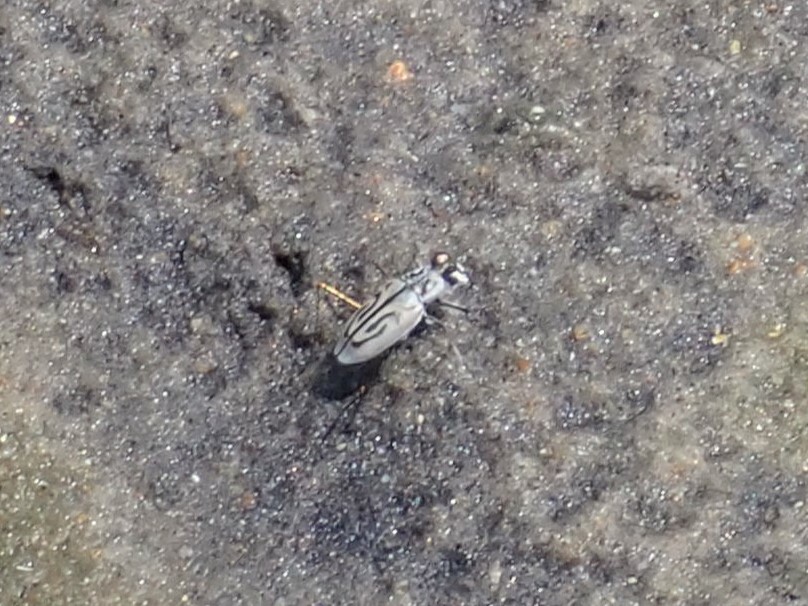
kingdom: Animalia
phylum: Arthropoda
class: Insecta
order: Coleoptera
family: Carabidae
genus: Habroscelimorpha
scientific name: Habroscelimorpha dorsalis
